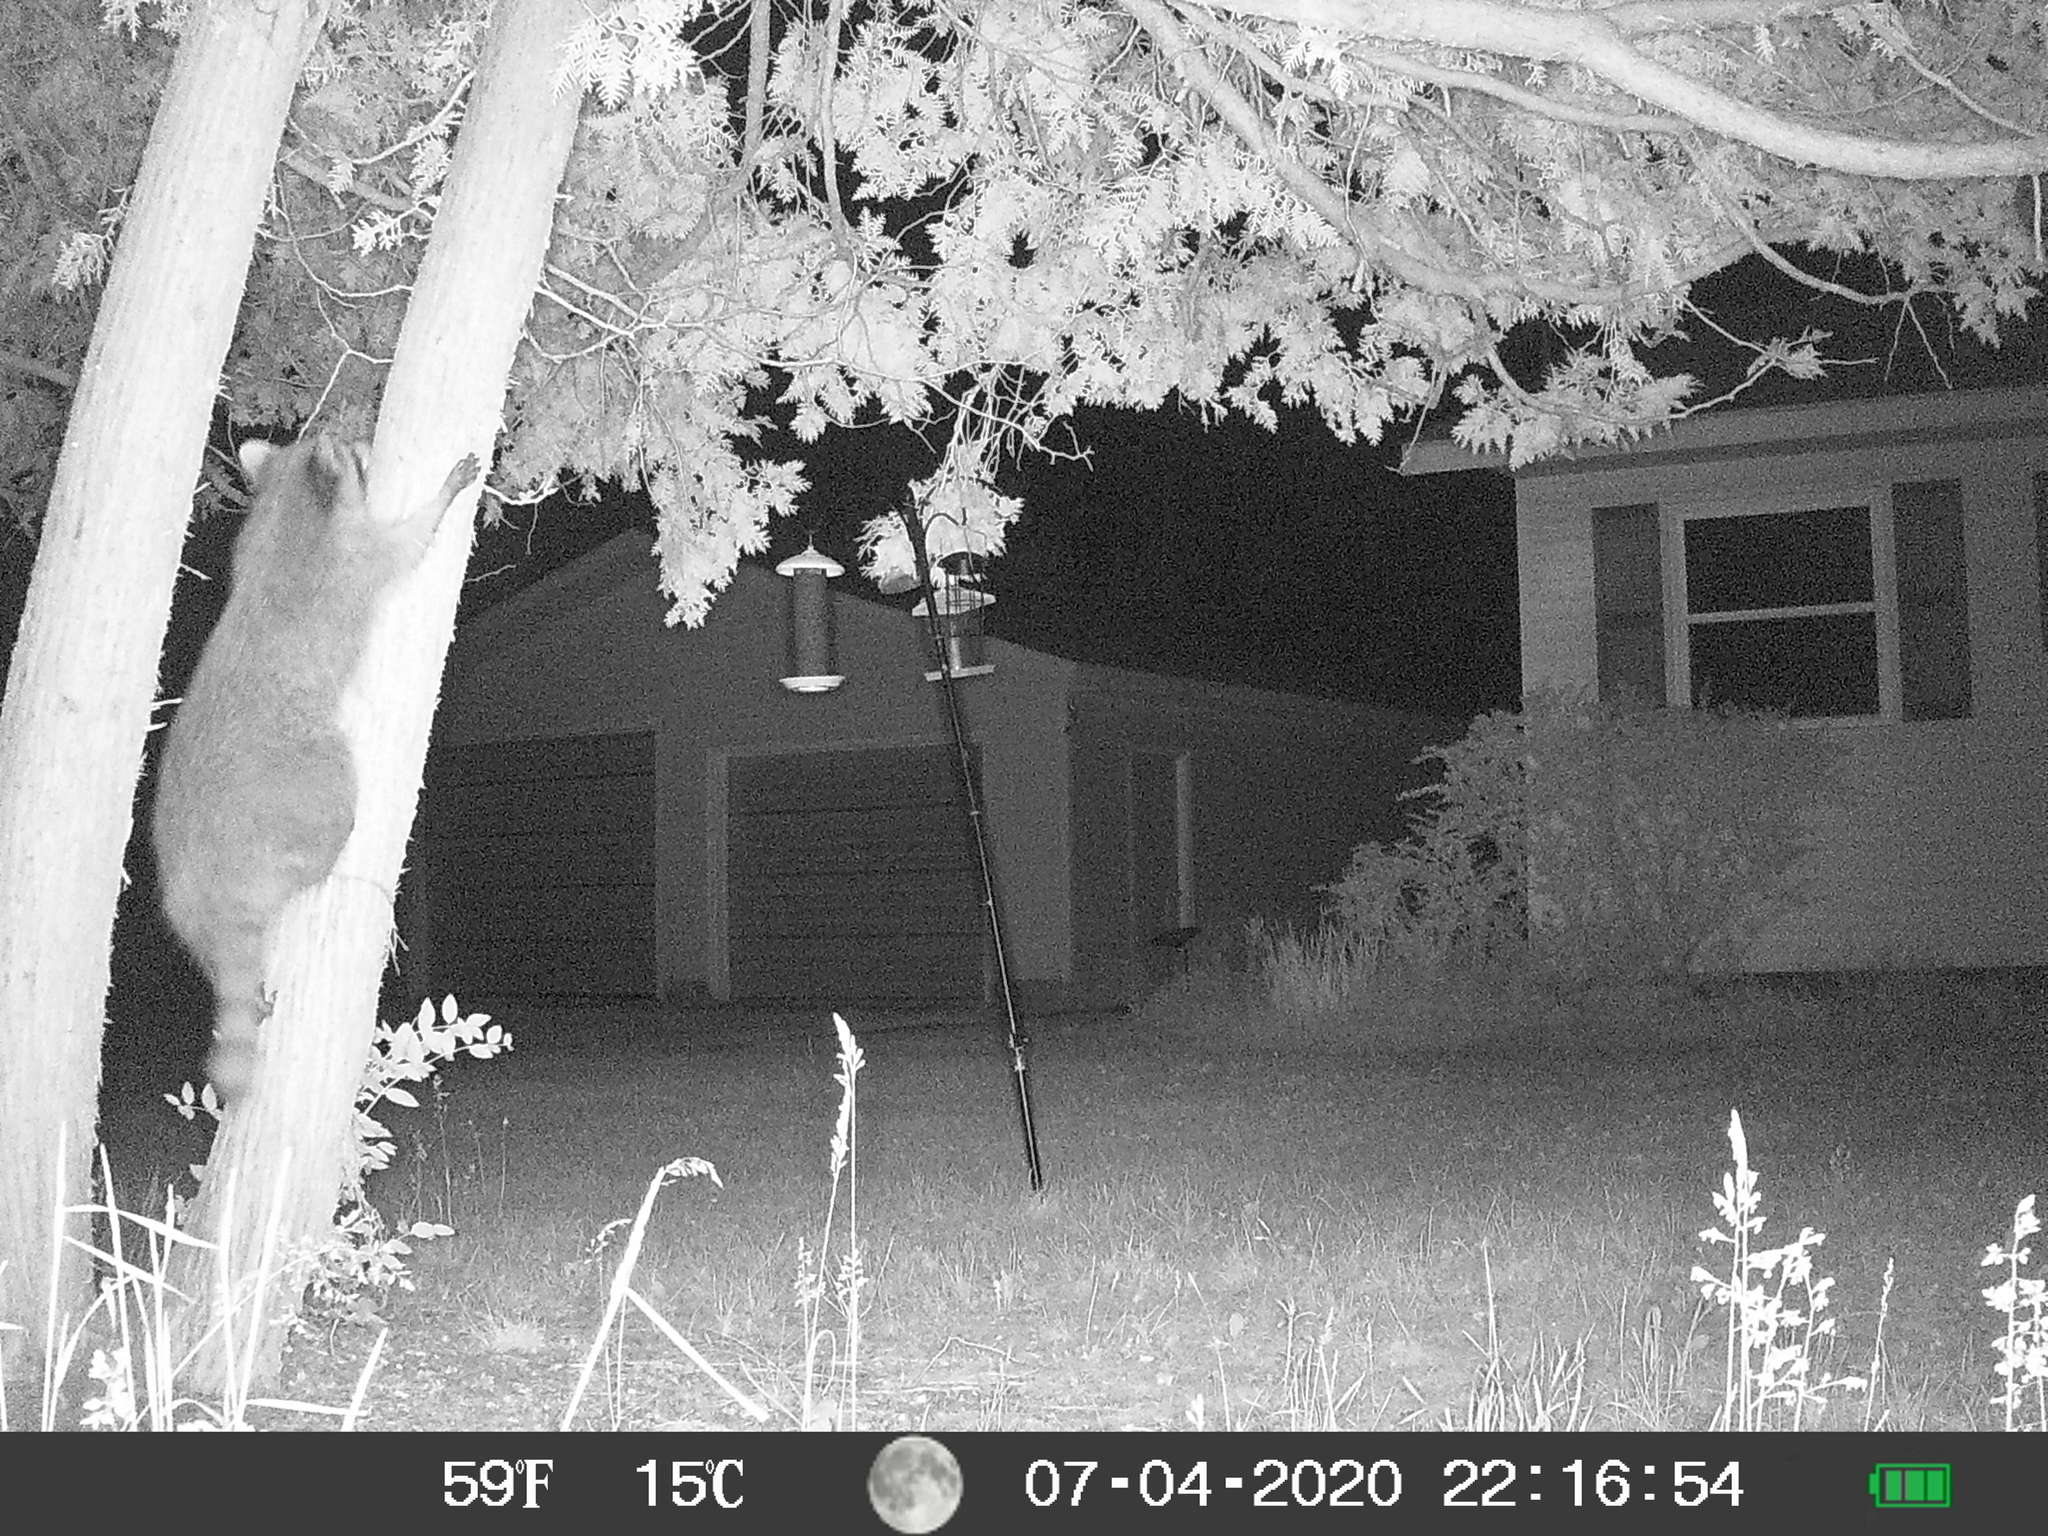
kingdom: Animalia
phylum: Chordata
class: Mammalia
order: Carnivora
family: Procyonidae
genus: Procyon
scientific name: Procyon lotor
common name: Raccoon
